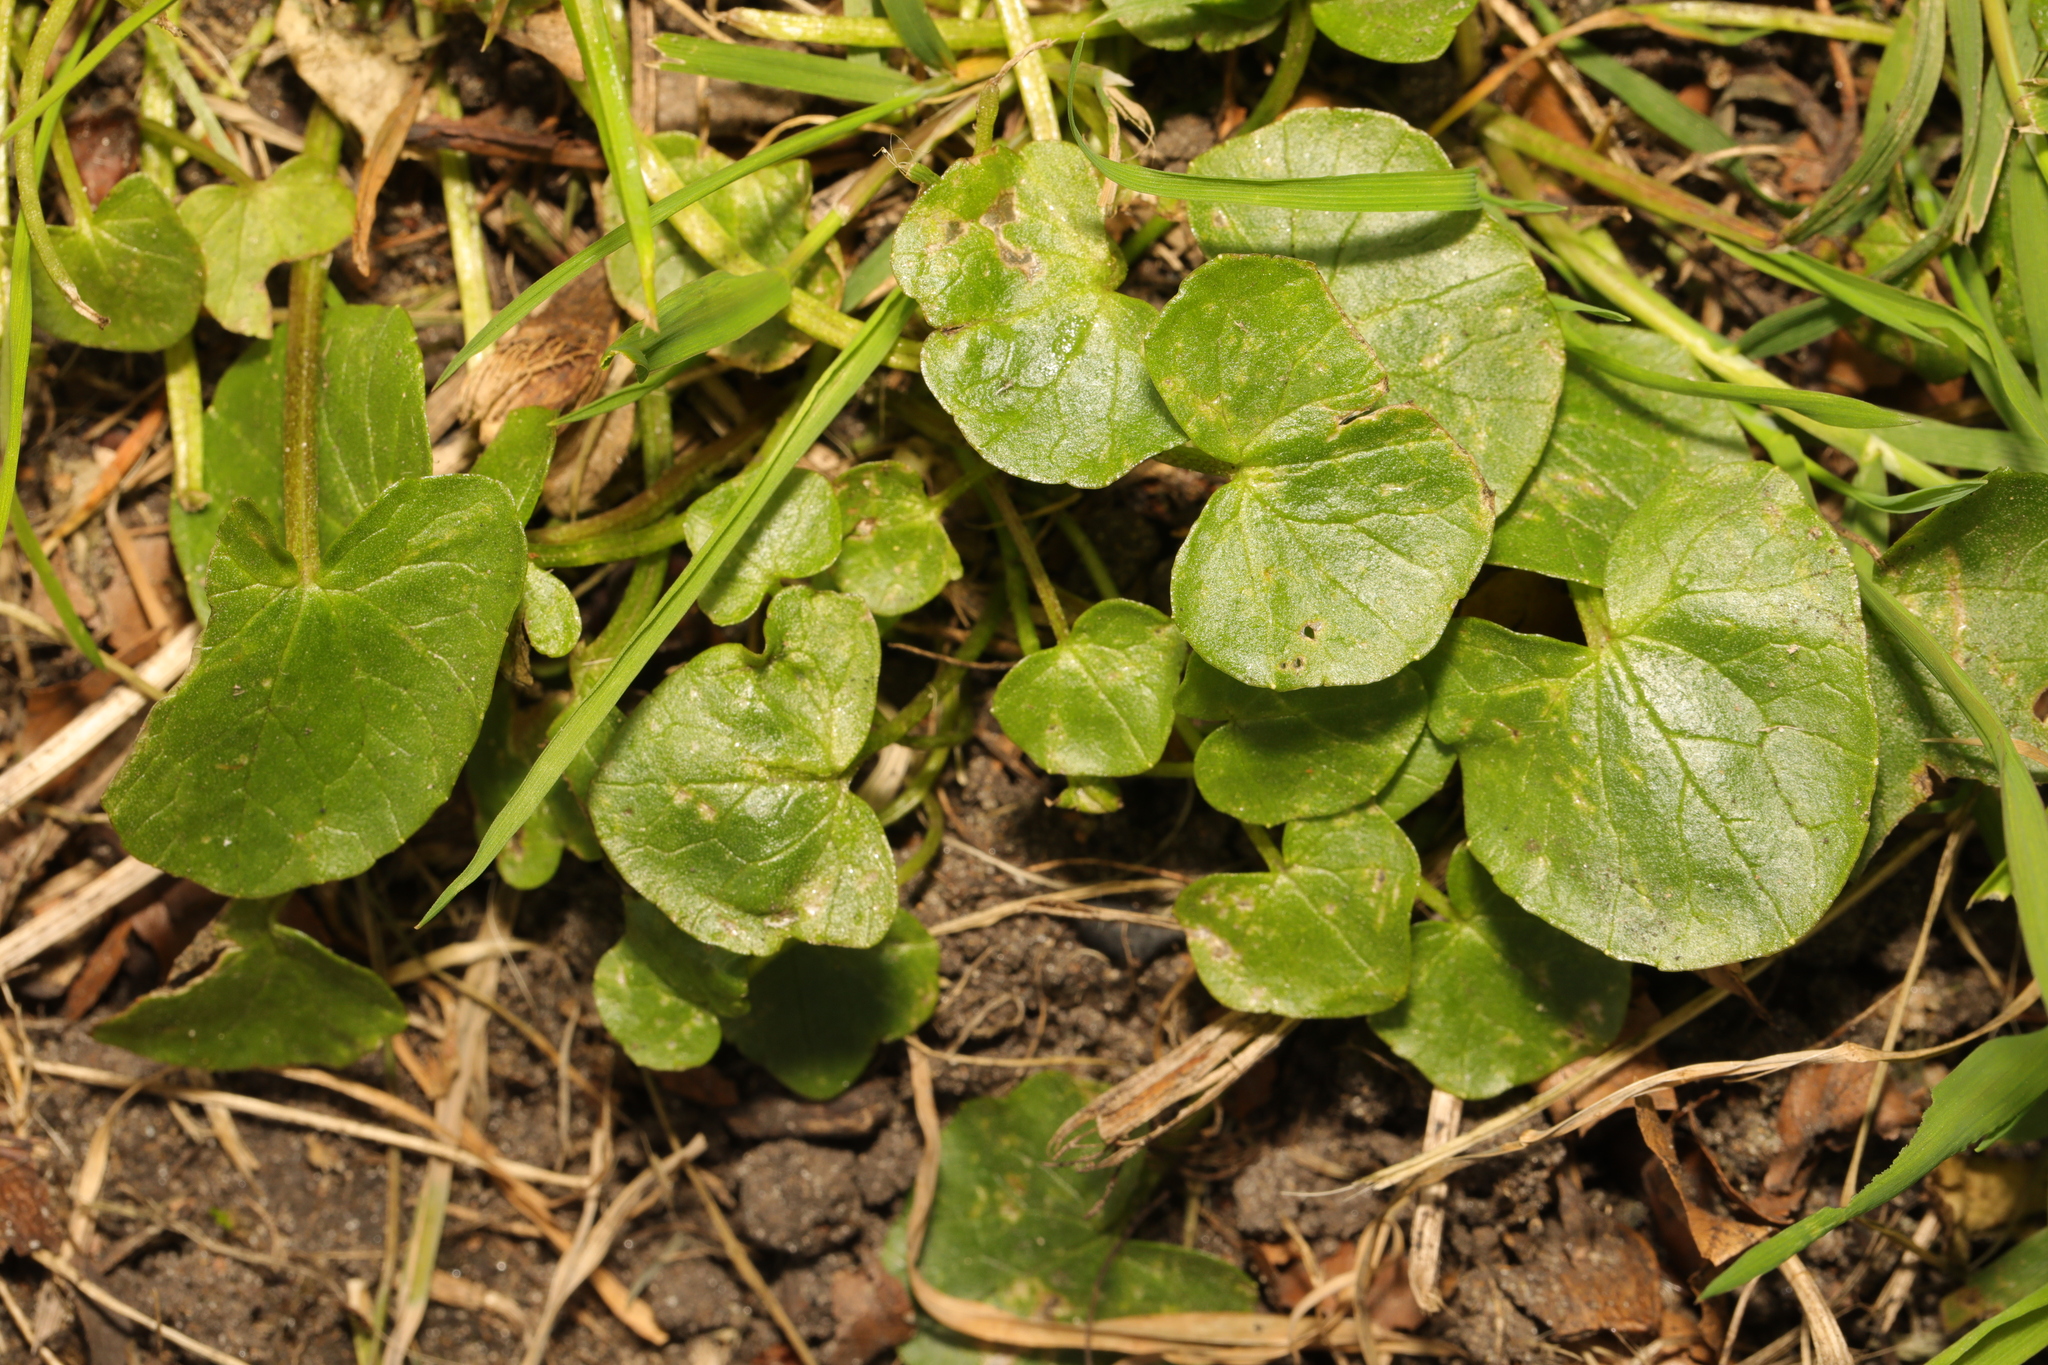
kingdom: Plantae
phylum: Tracheophyta
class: Magnoliopsida
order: Ranunculales
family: Ranunculaceae
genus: Ficaria
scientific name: Ficaria verna
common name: Lesser celandine
